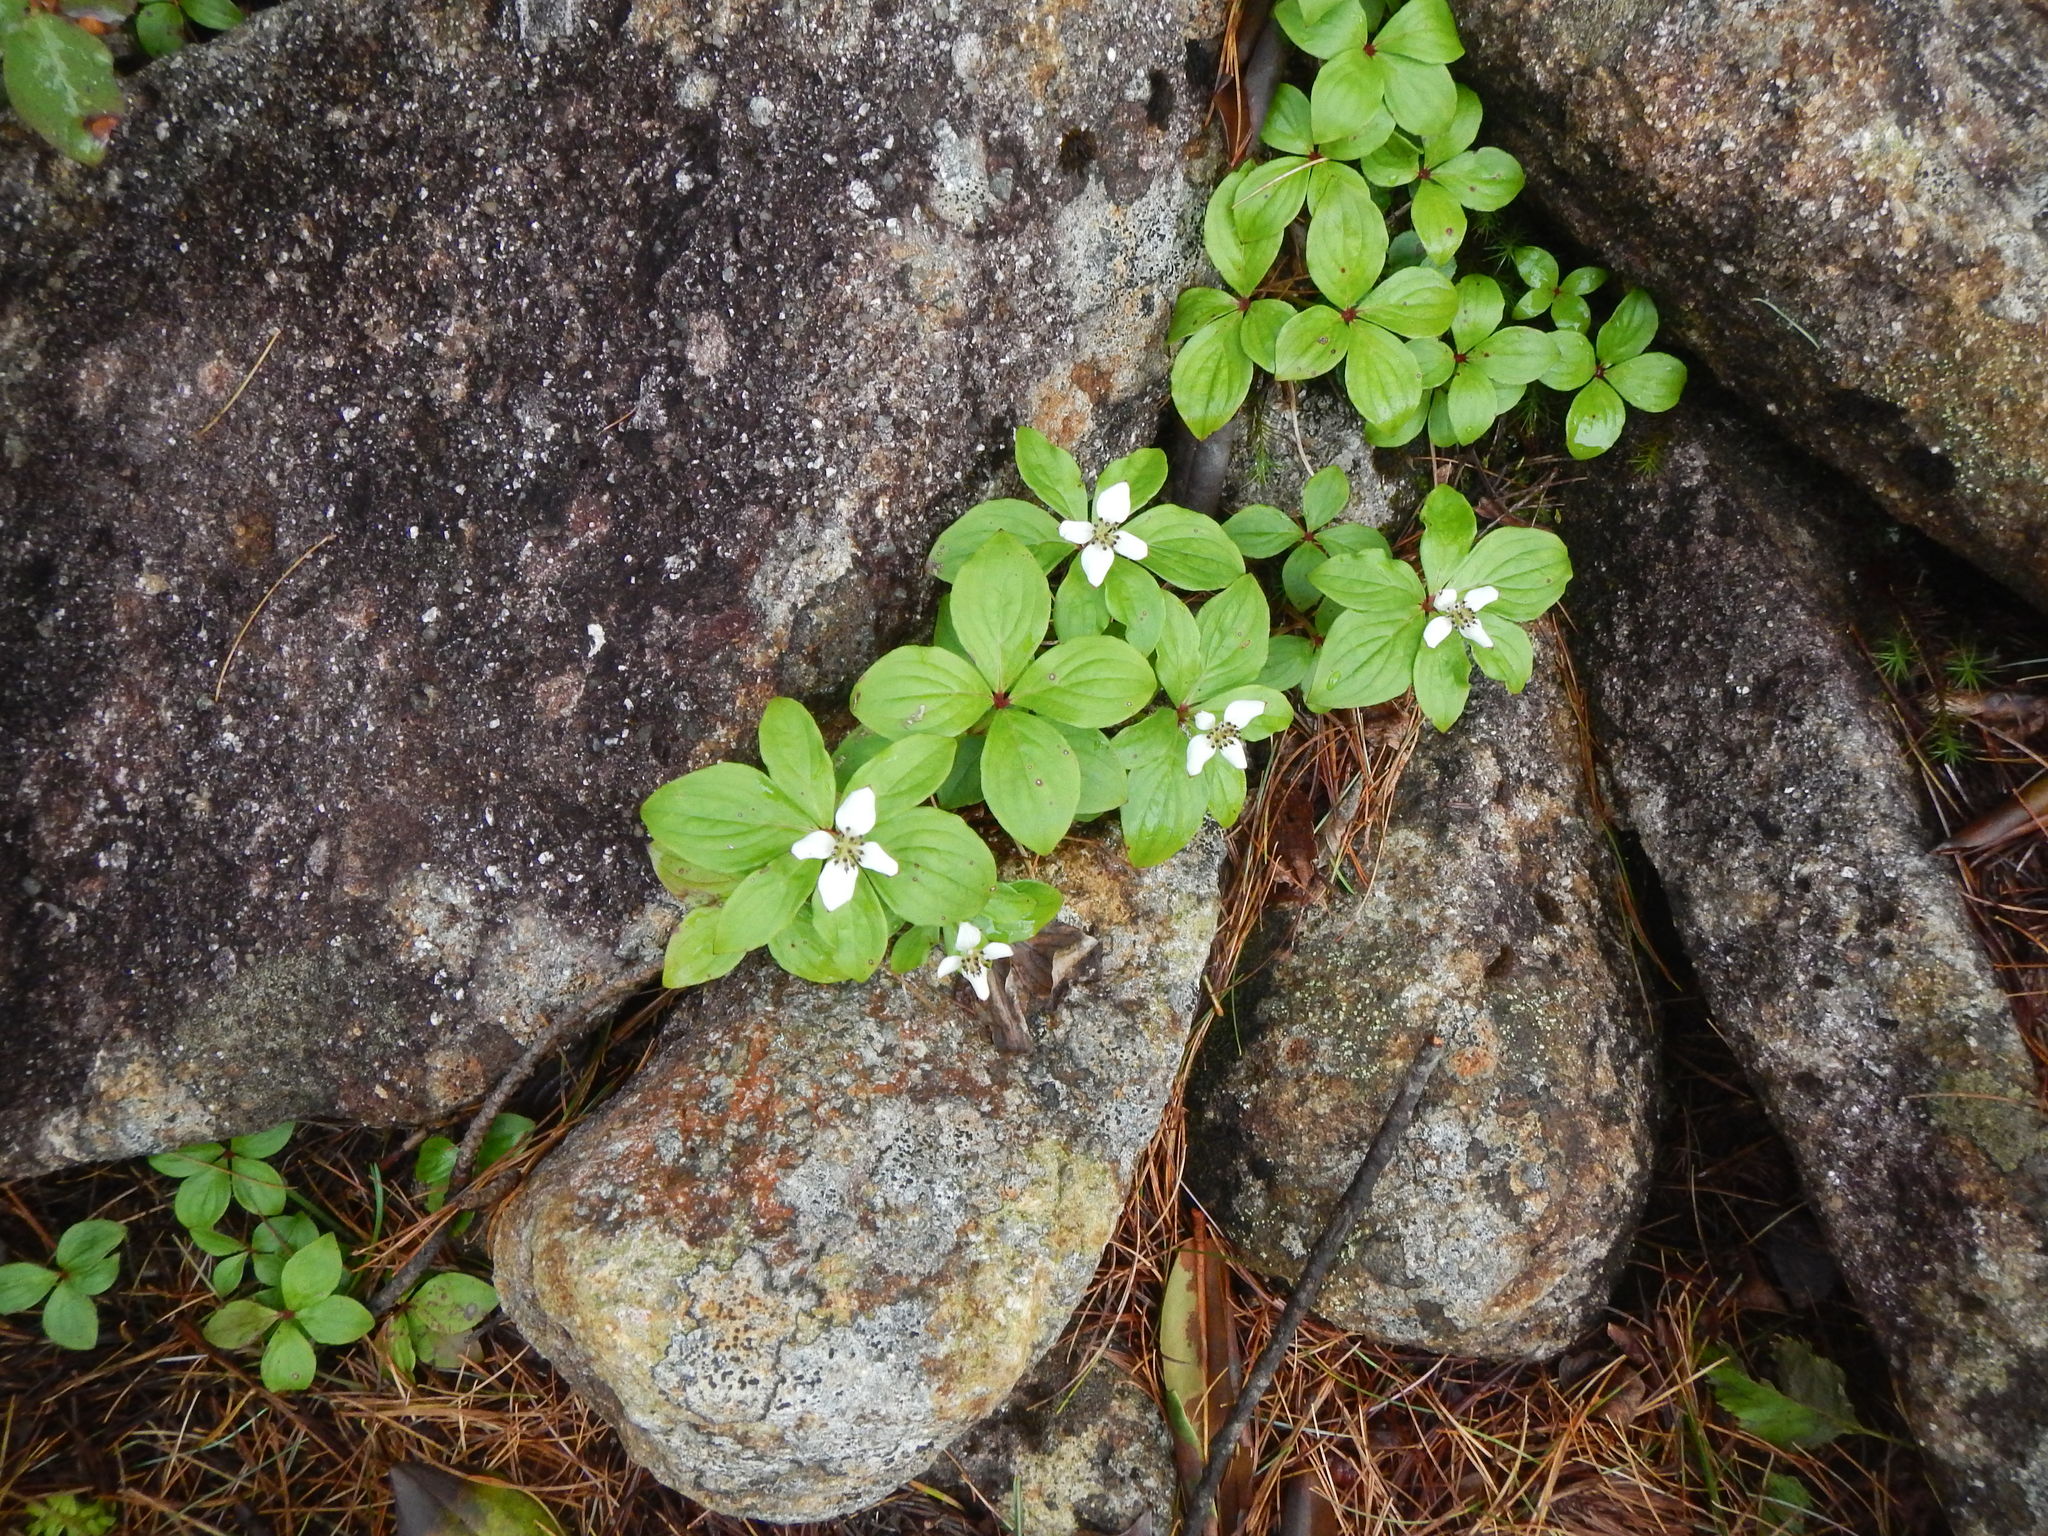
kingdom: Plantae
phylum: Tracheophyta
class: Magnoliopsida
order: Cornales
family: Cornaceae
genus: Cornus
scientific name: Cornus canadensis
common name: Creeping dogwood
